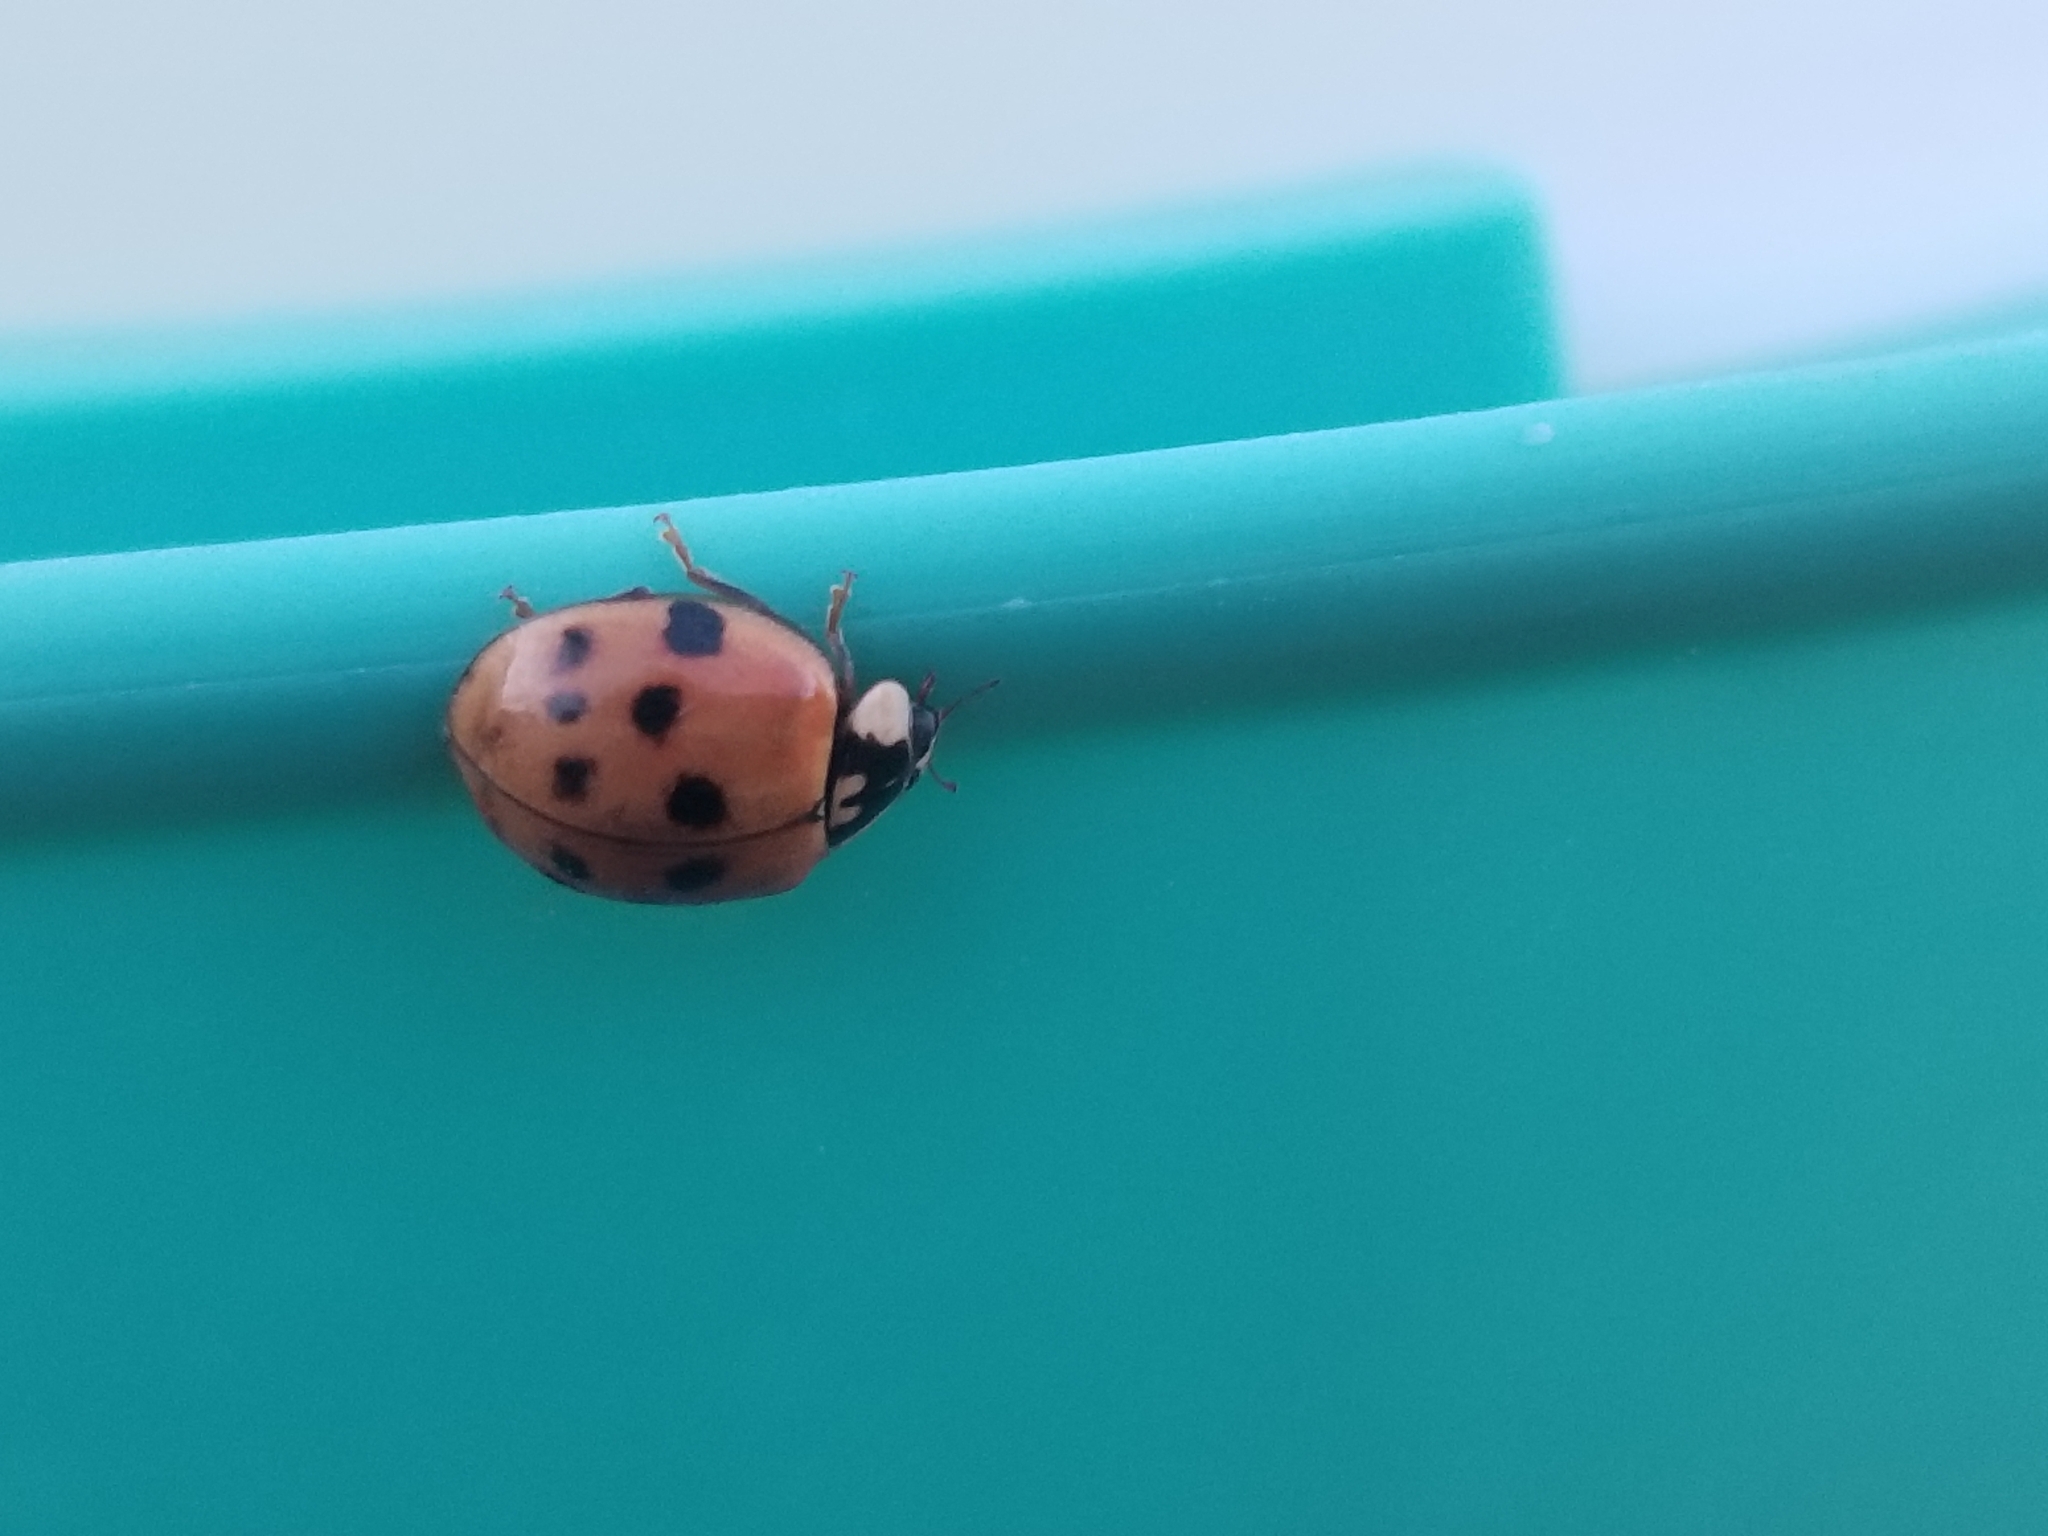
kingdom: Animalia
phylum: Arthropoda
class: Insecta
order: Coleoptera
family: Coccinellidae
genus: Harmonia
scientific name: Harmonia axyridis
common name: Harlequin ladybird
